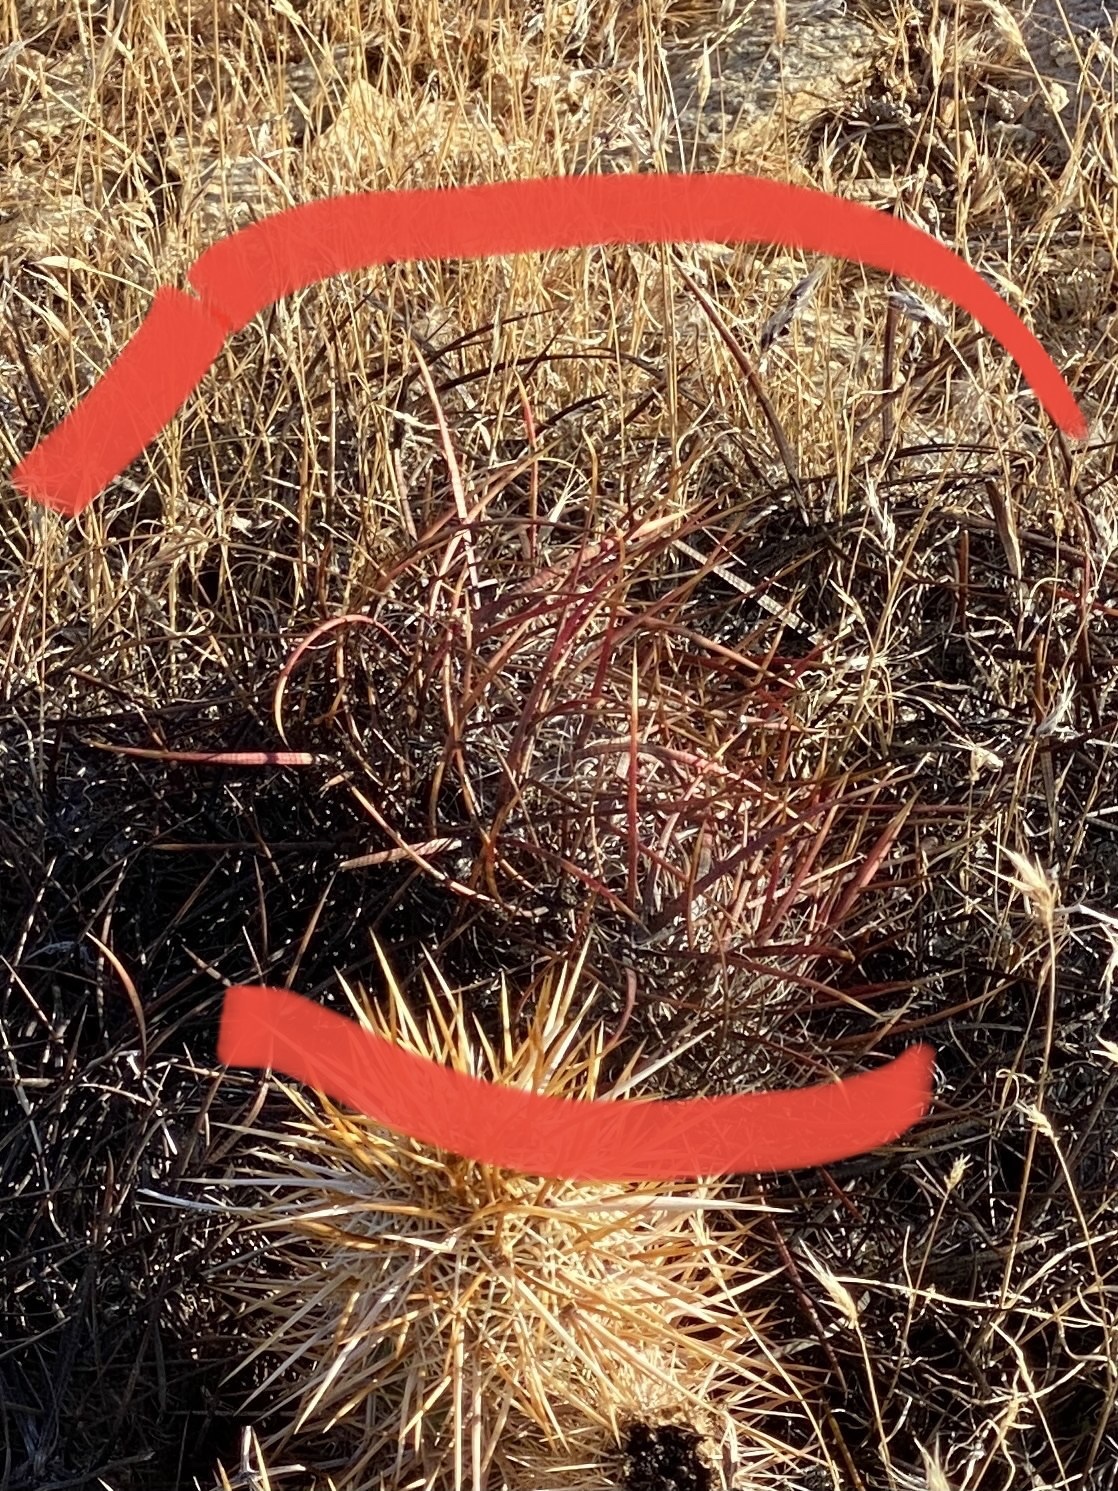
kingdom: Plantae
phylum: Tracheophyta
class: Magnoliopsida
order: Caryophyllales
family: Cactaceae
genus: Ferocactus
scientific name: Ferocactus cylindraceus
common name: California barrel cactus
